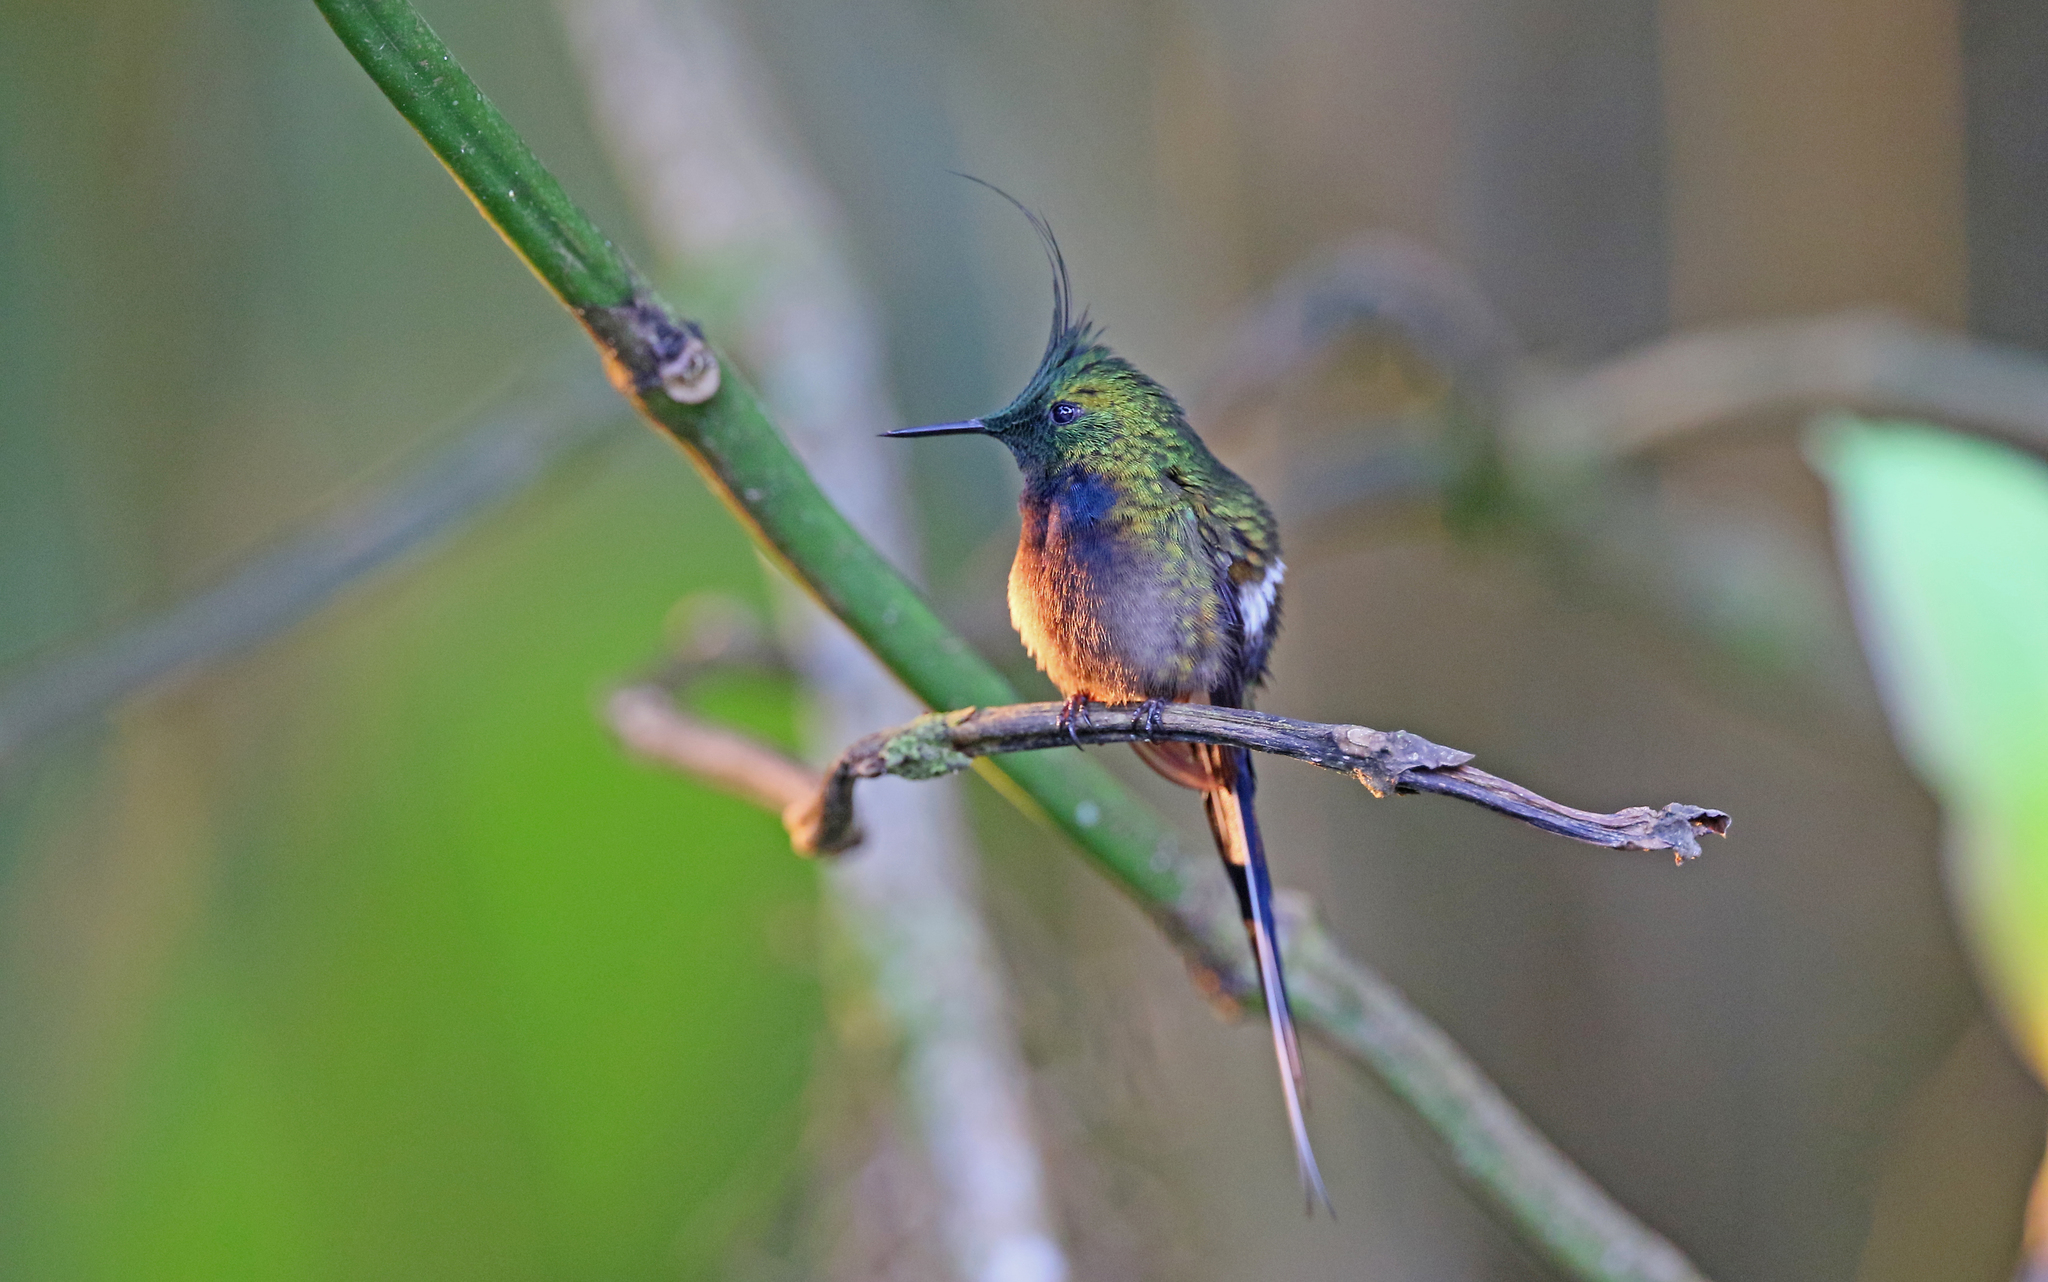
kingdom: Animalia
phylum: Chordata
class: Aves
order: Apodiformes
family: Trochilidae
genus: Discosura
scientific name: Discosura popelairii
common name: Wire-crested thorntail
